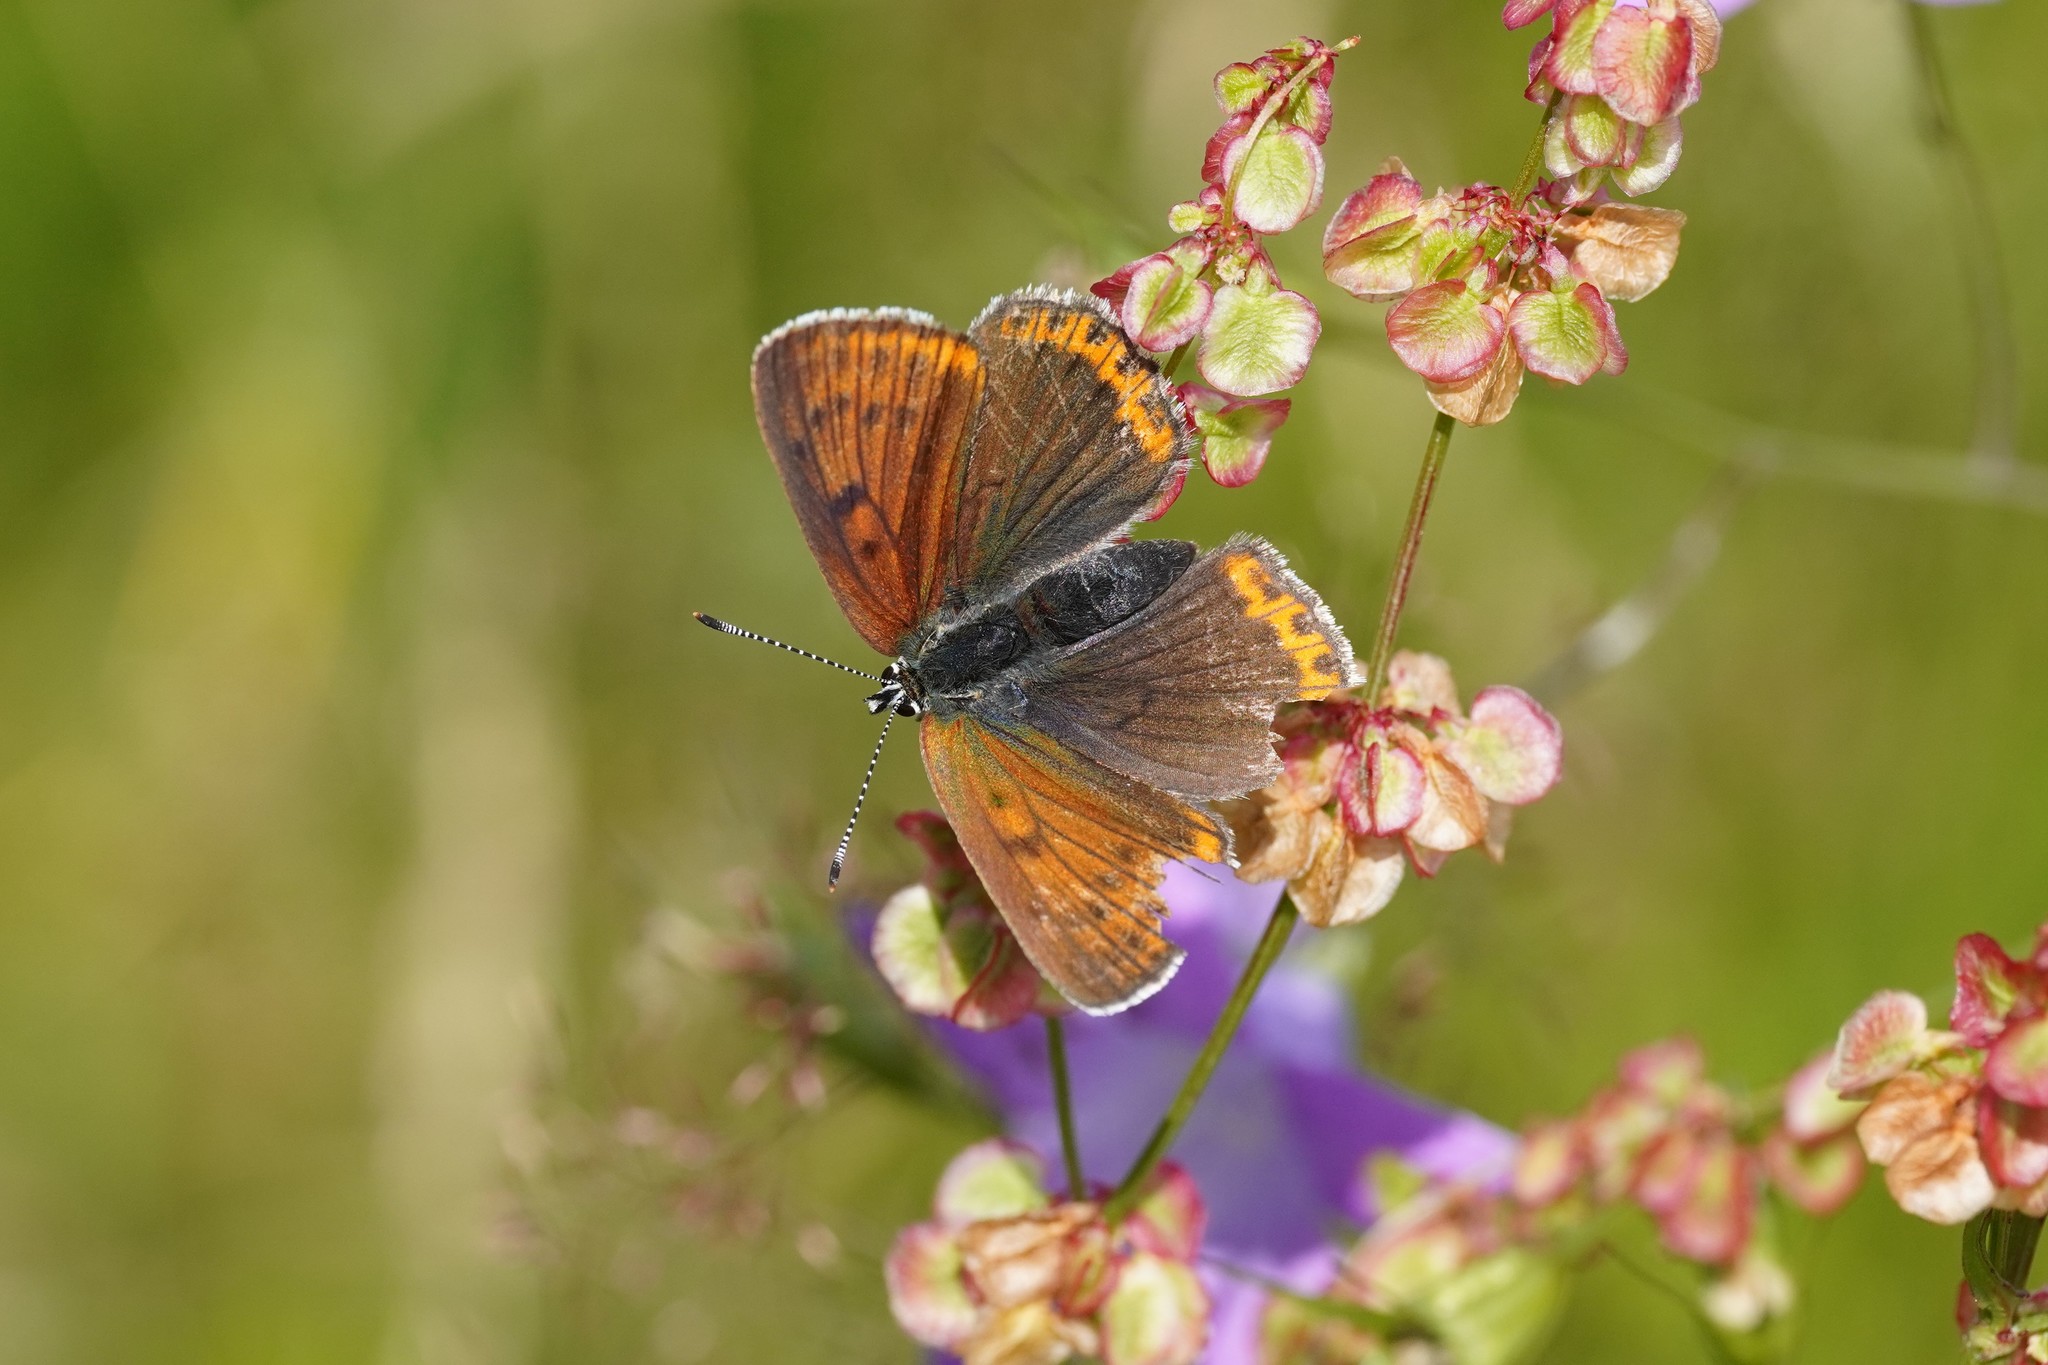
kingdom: Animalia
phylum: Arthropoda
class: Insecta
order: Lepidoptera
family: Lycaenidae
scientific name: Lycaenidae
